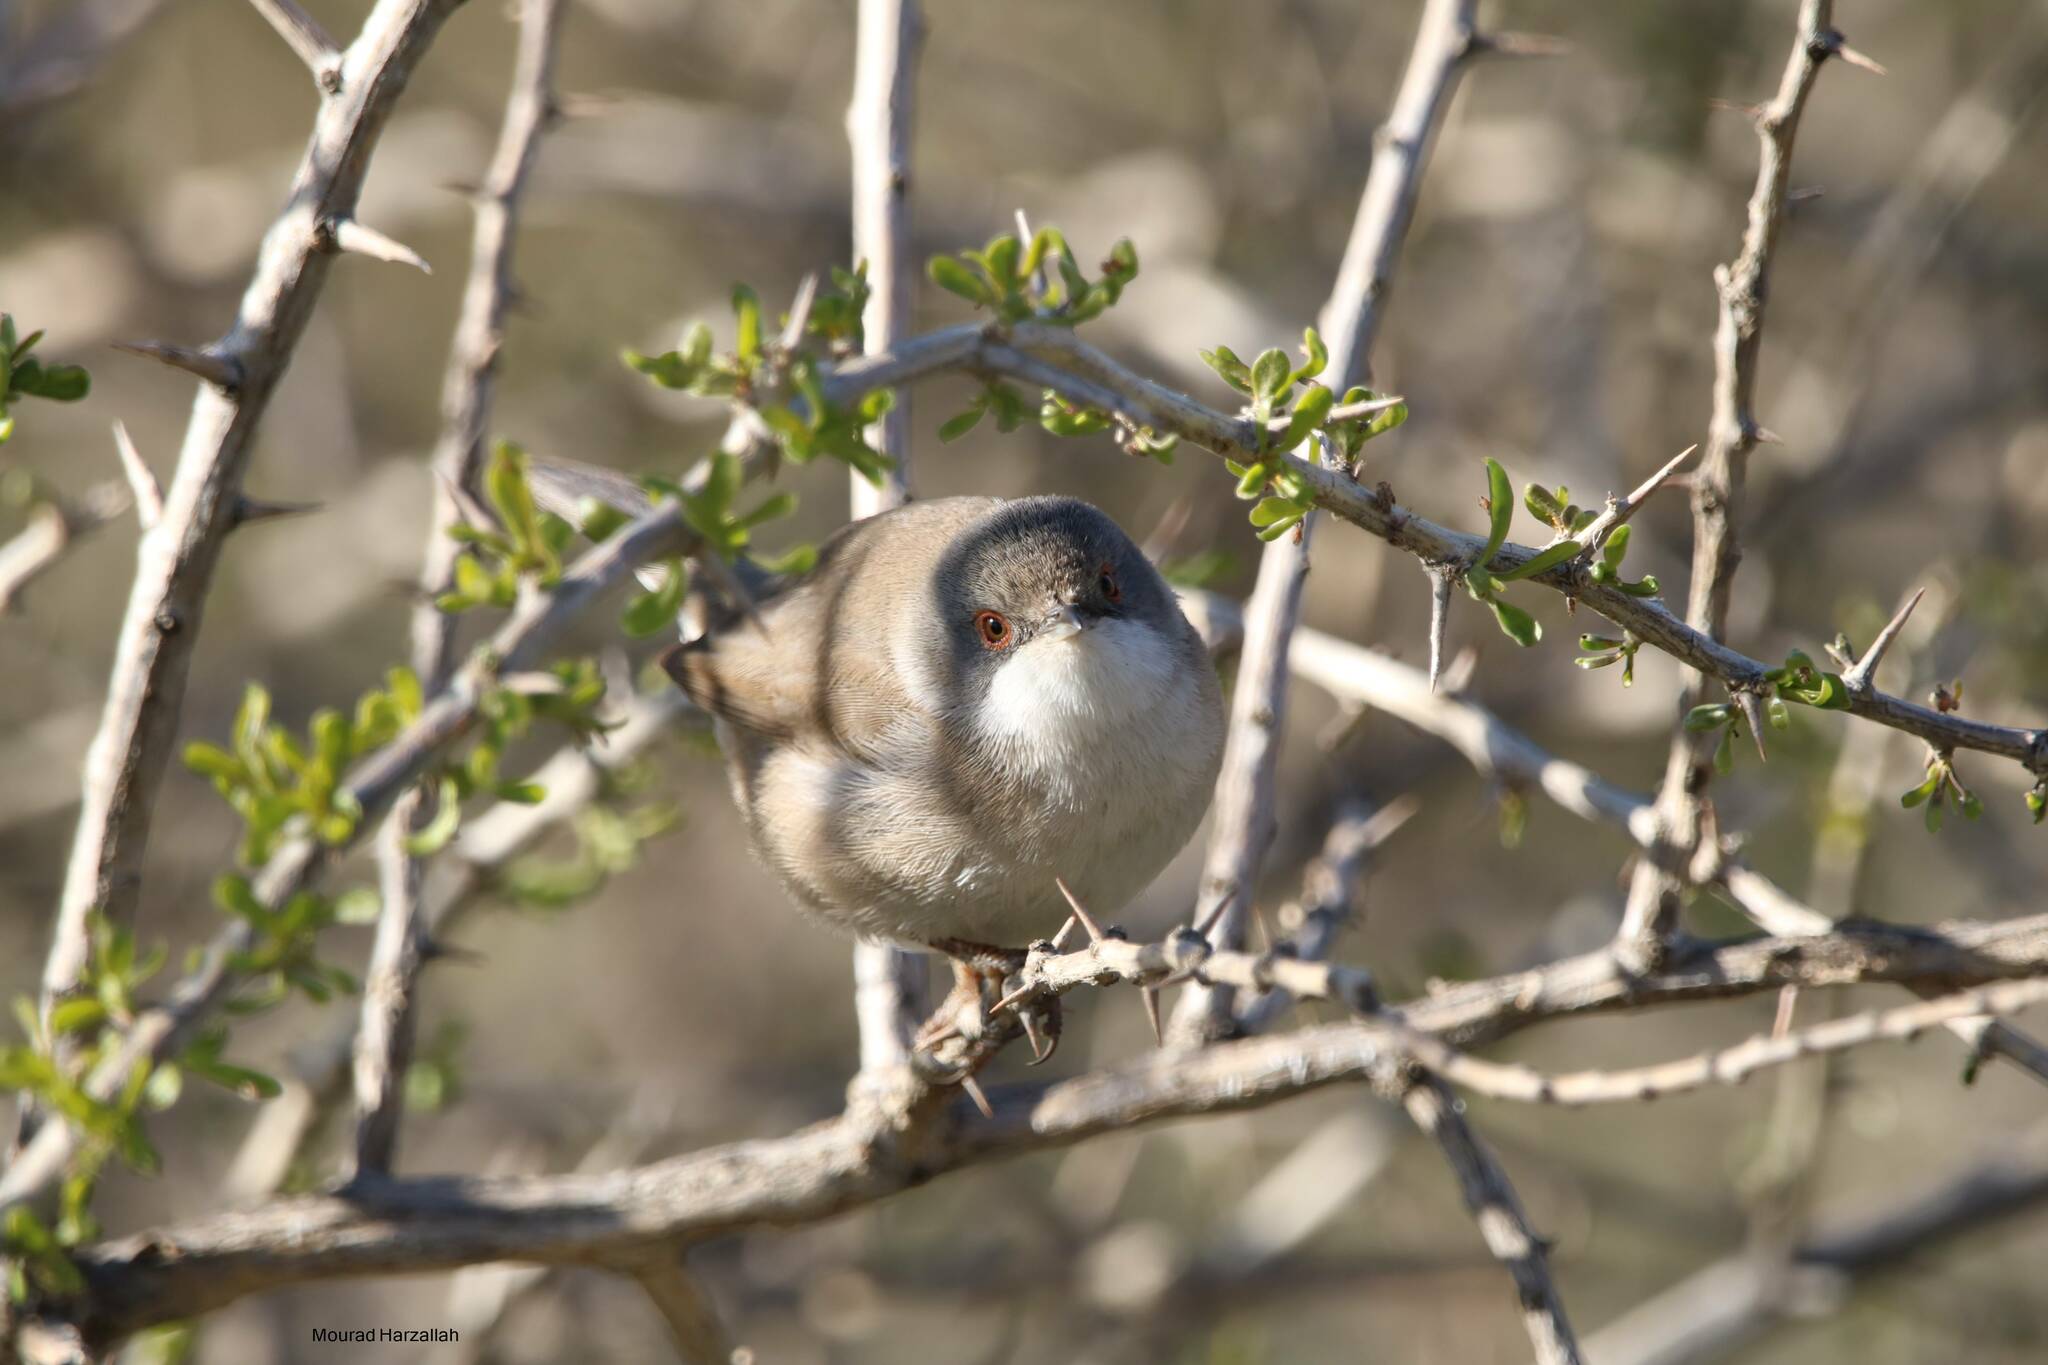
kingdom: Animalia
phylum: Chordata
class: Aves
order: Passeriformes
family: Sylviidae
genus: Curruca
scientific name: Curruca melanocephala
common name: Sardinian warbler
